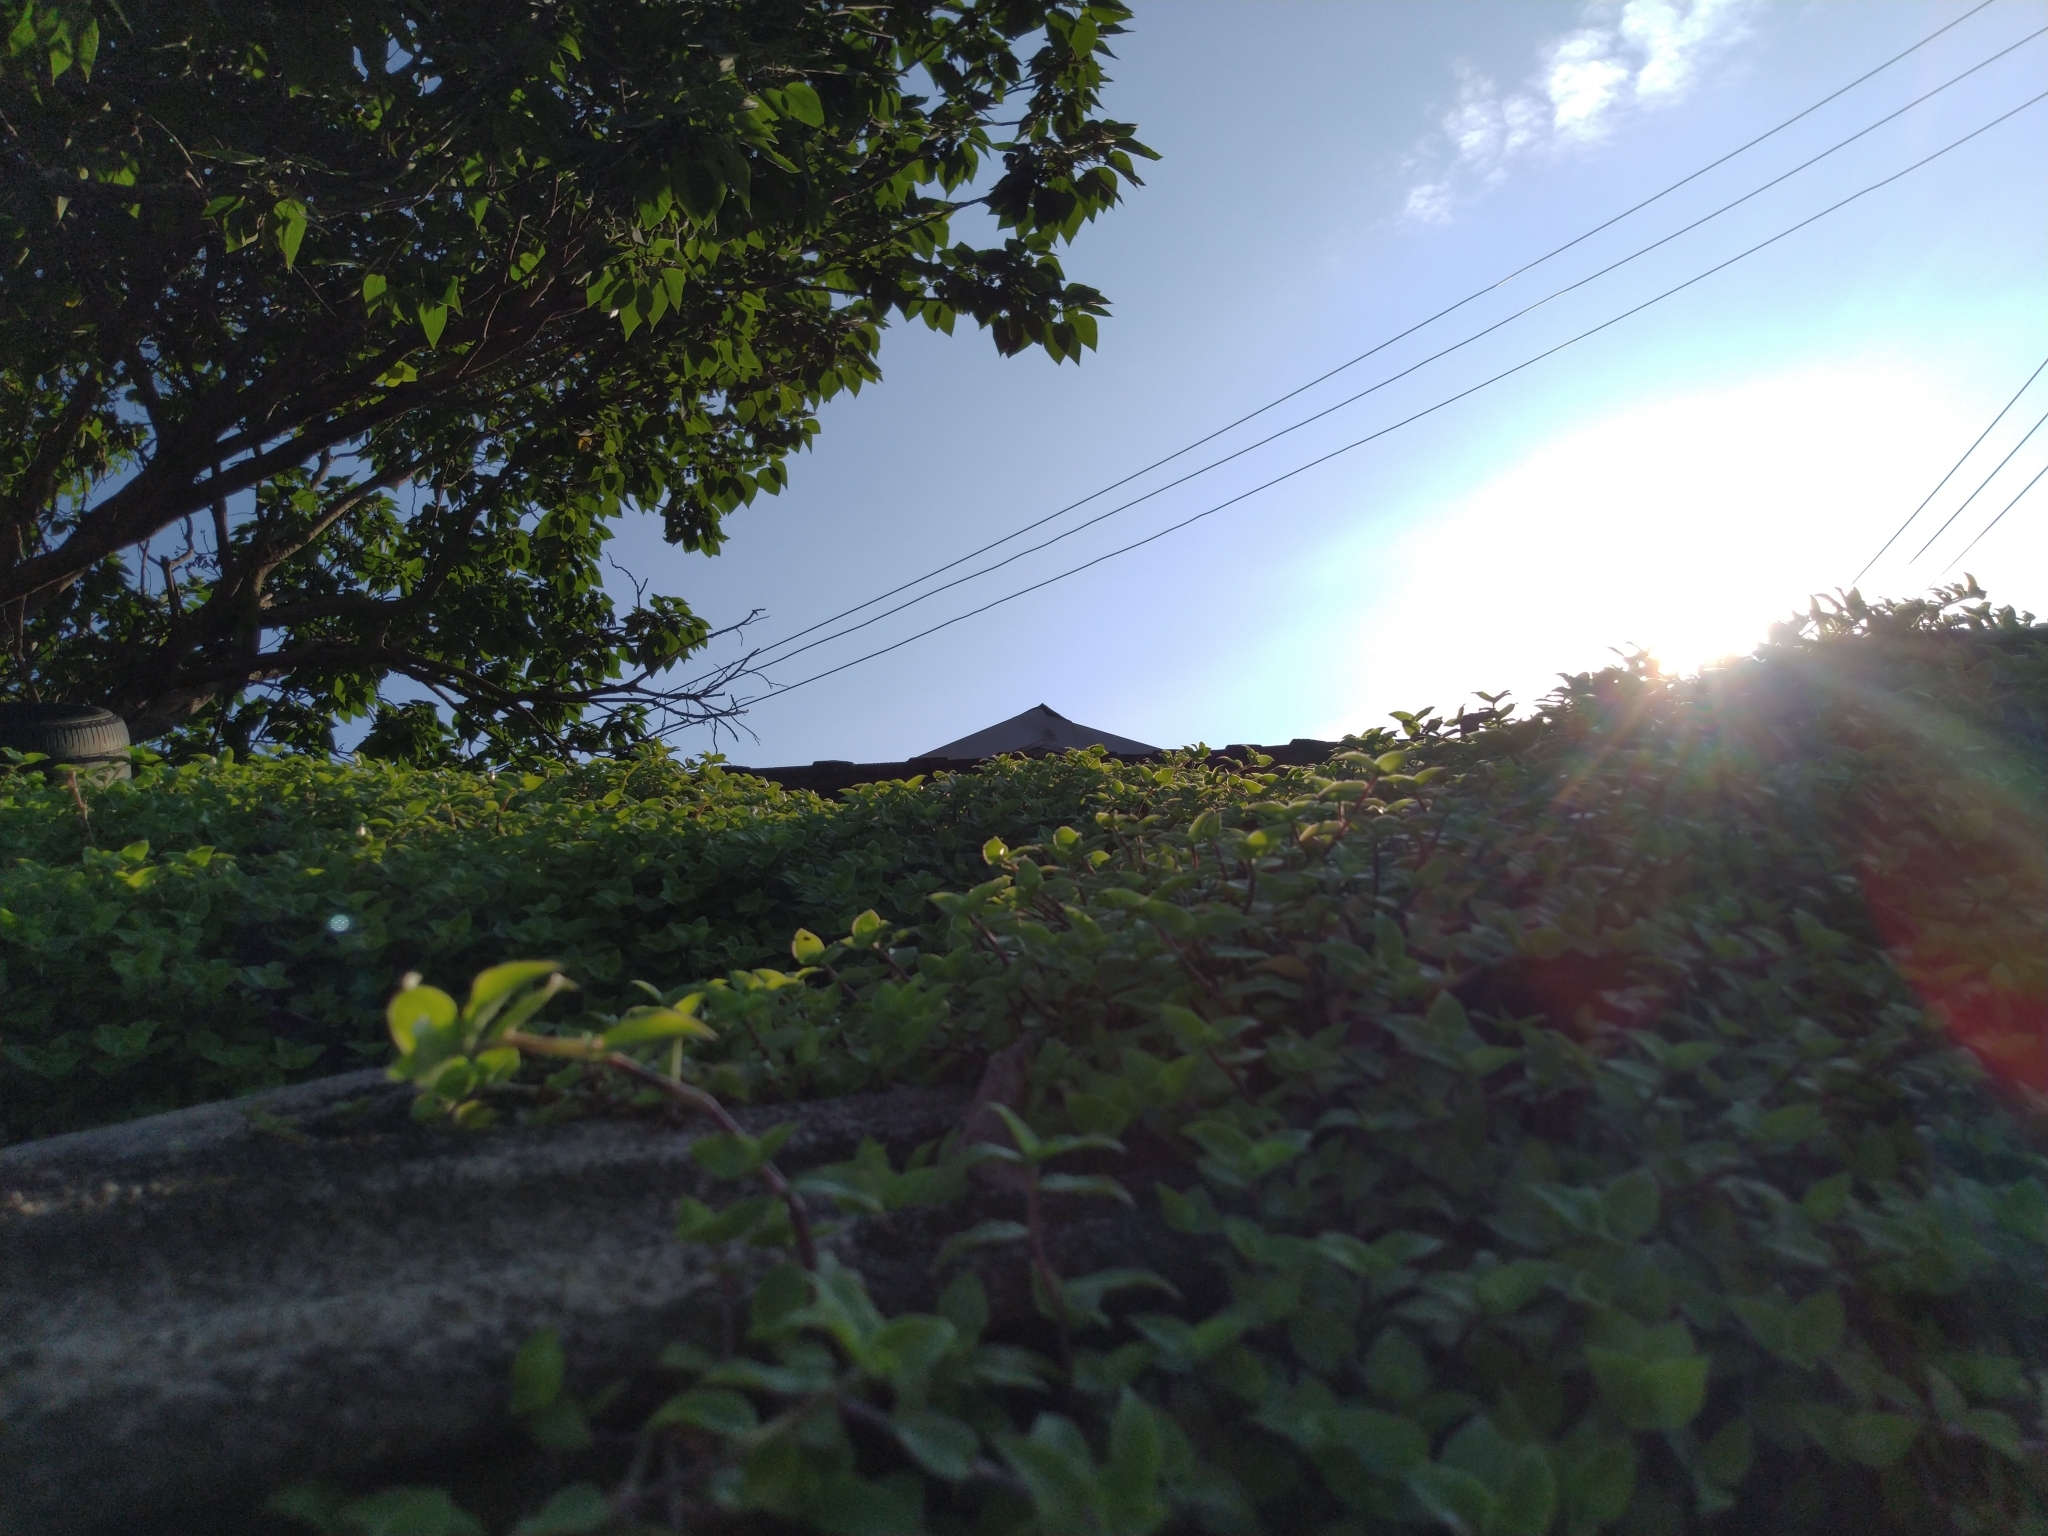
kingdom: Plantae
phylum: Tracheophyta
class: Liliopsida
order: Commelinales
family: Commelinaceae
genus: Callisia
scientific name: Callisia repens
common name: Creeping inchplant
